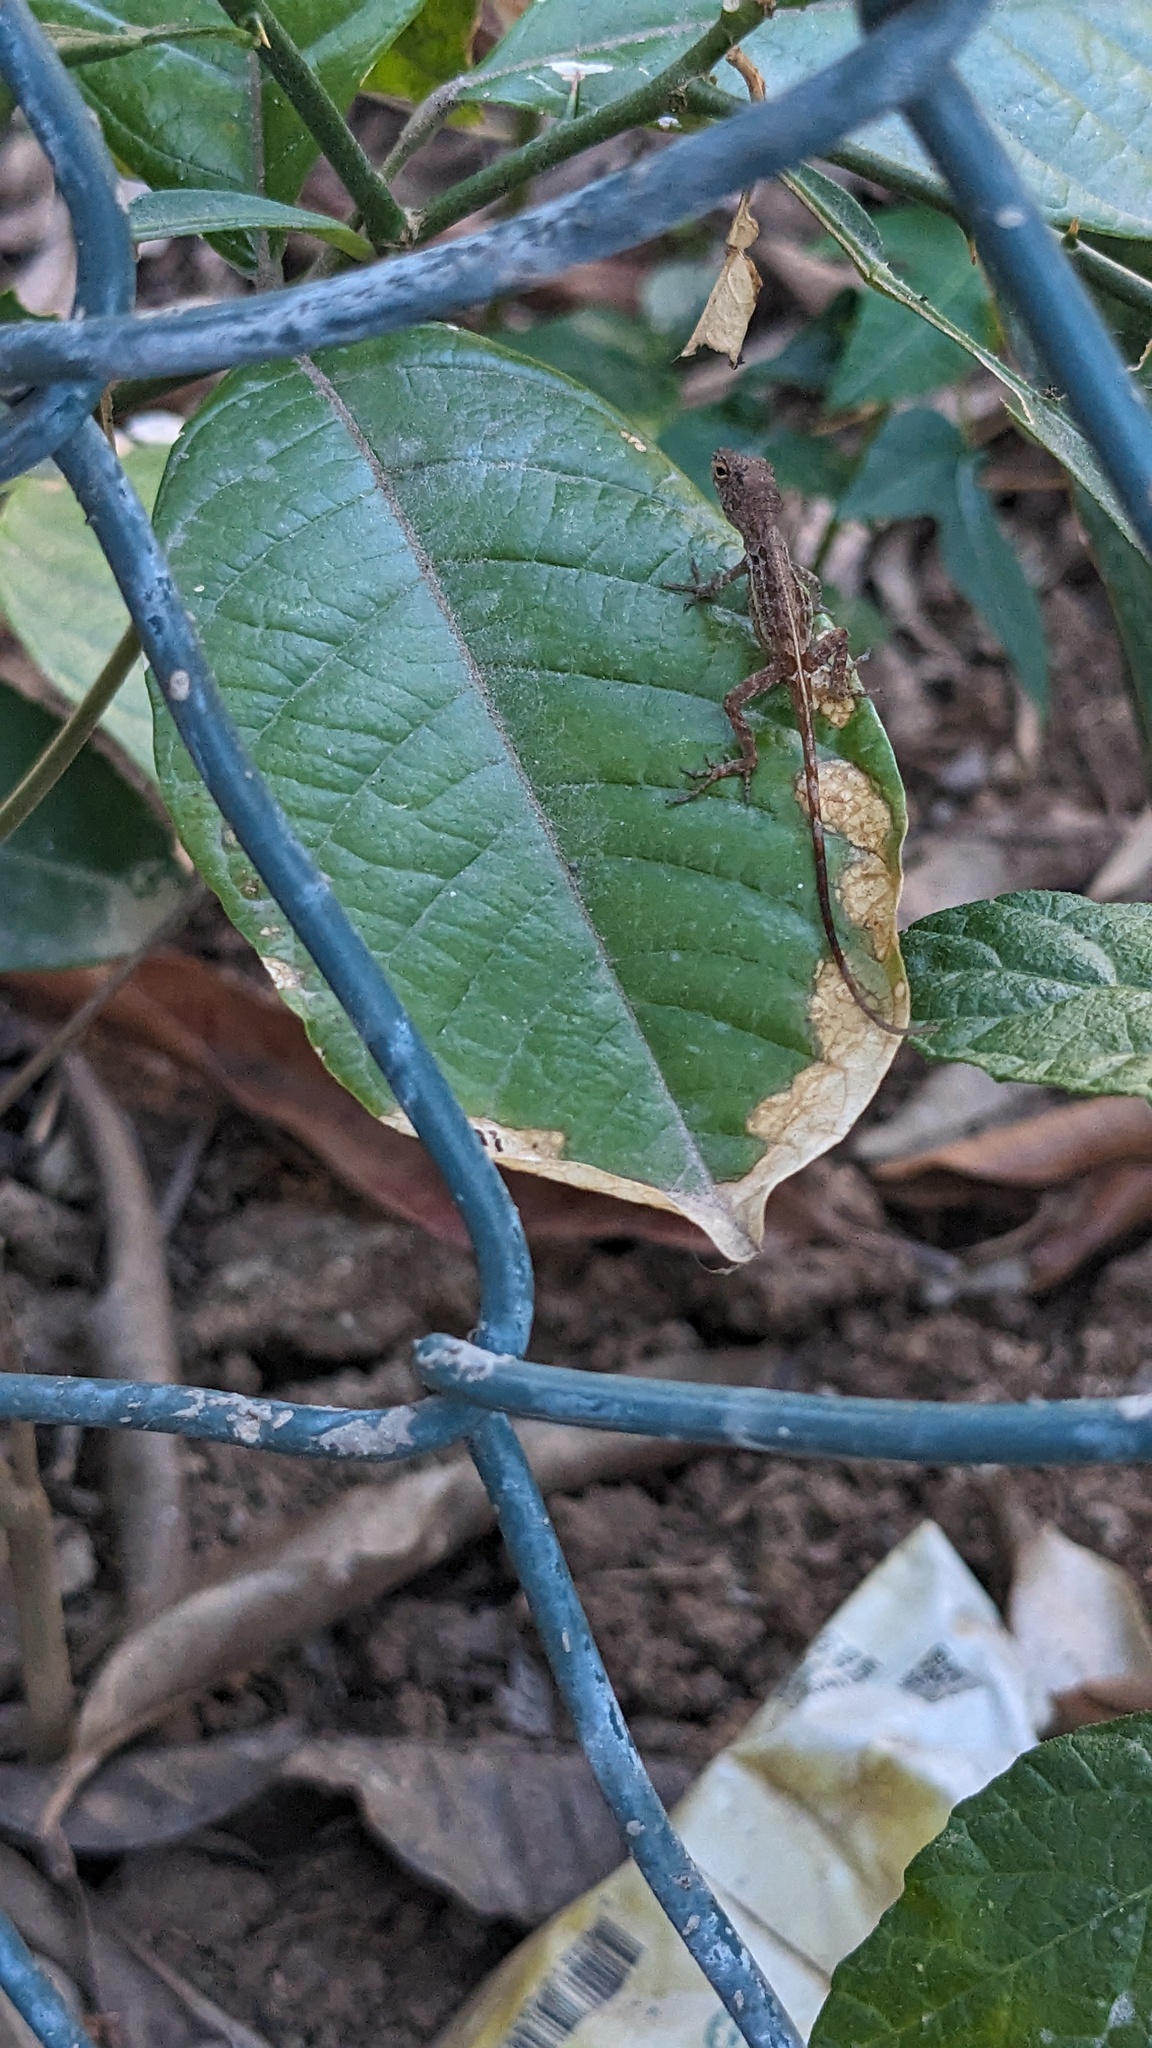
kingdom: Animalia
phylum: Chordata
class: Squamata
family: Dactyloidae
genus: Anolis
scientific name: Anolis lineatopus
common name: Stripefoot anole
